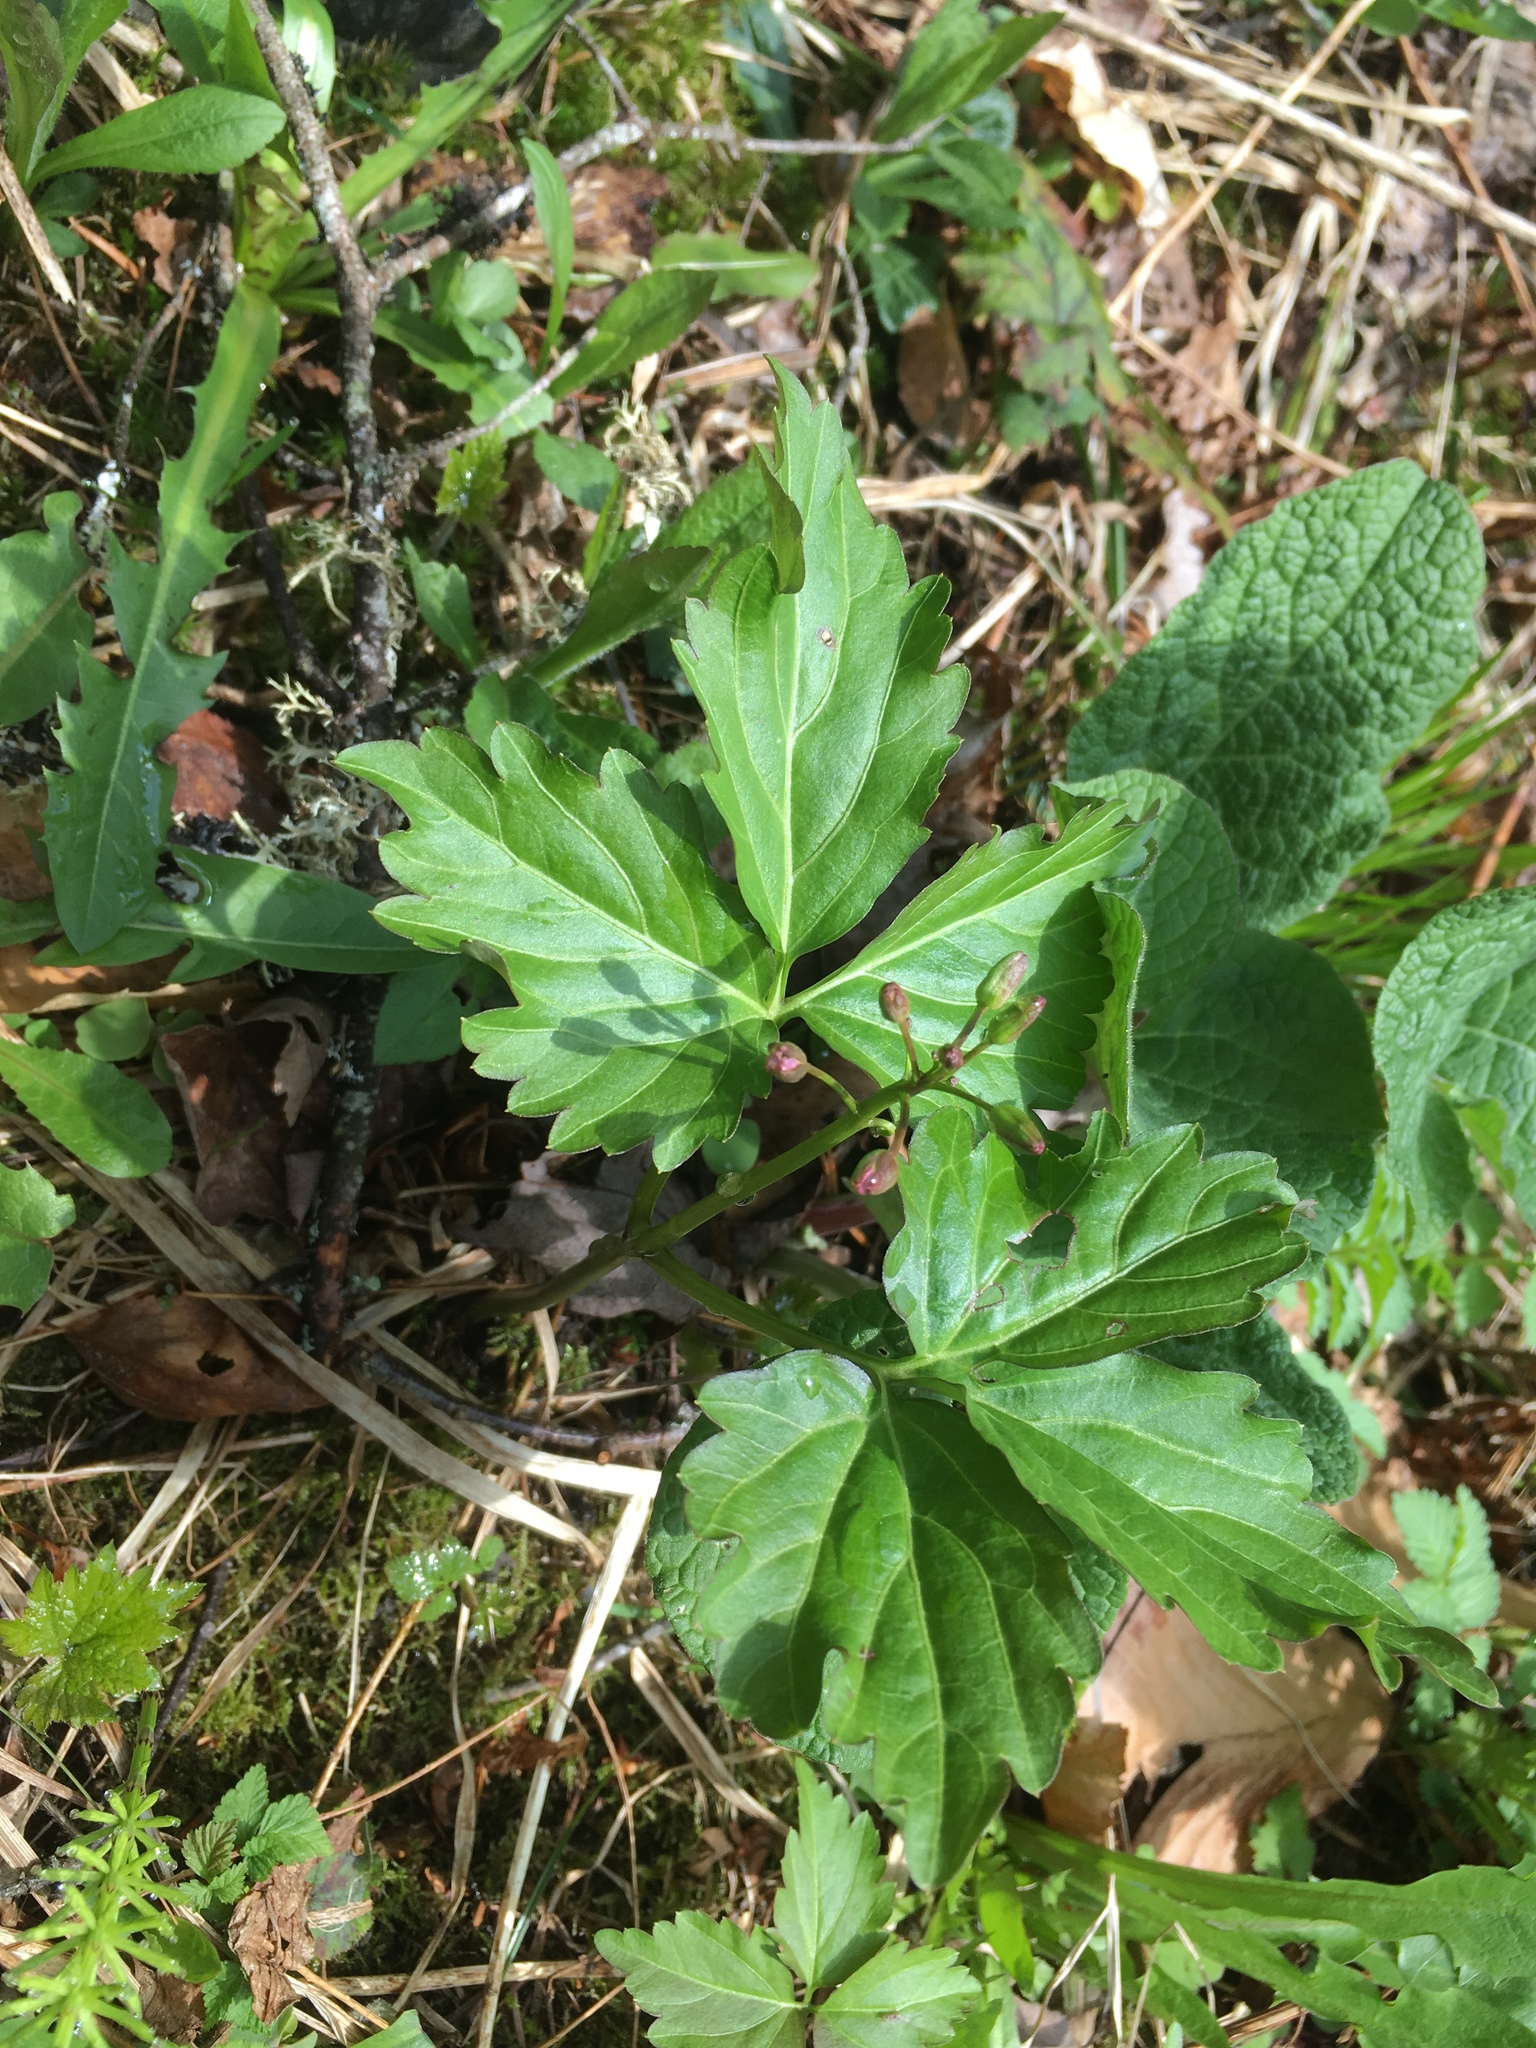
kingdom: Plantae
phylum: Tracheophyta
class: Magnoliopsida
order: Brassicales
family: Brassicaceae
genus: Cardamine
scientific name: Cardamine diphylla
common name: Broad-leaved toothwort
